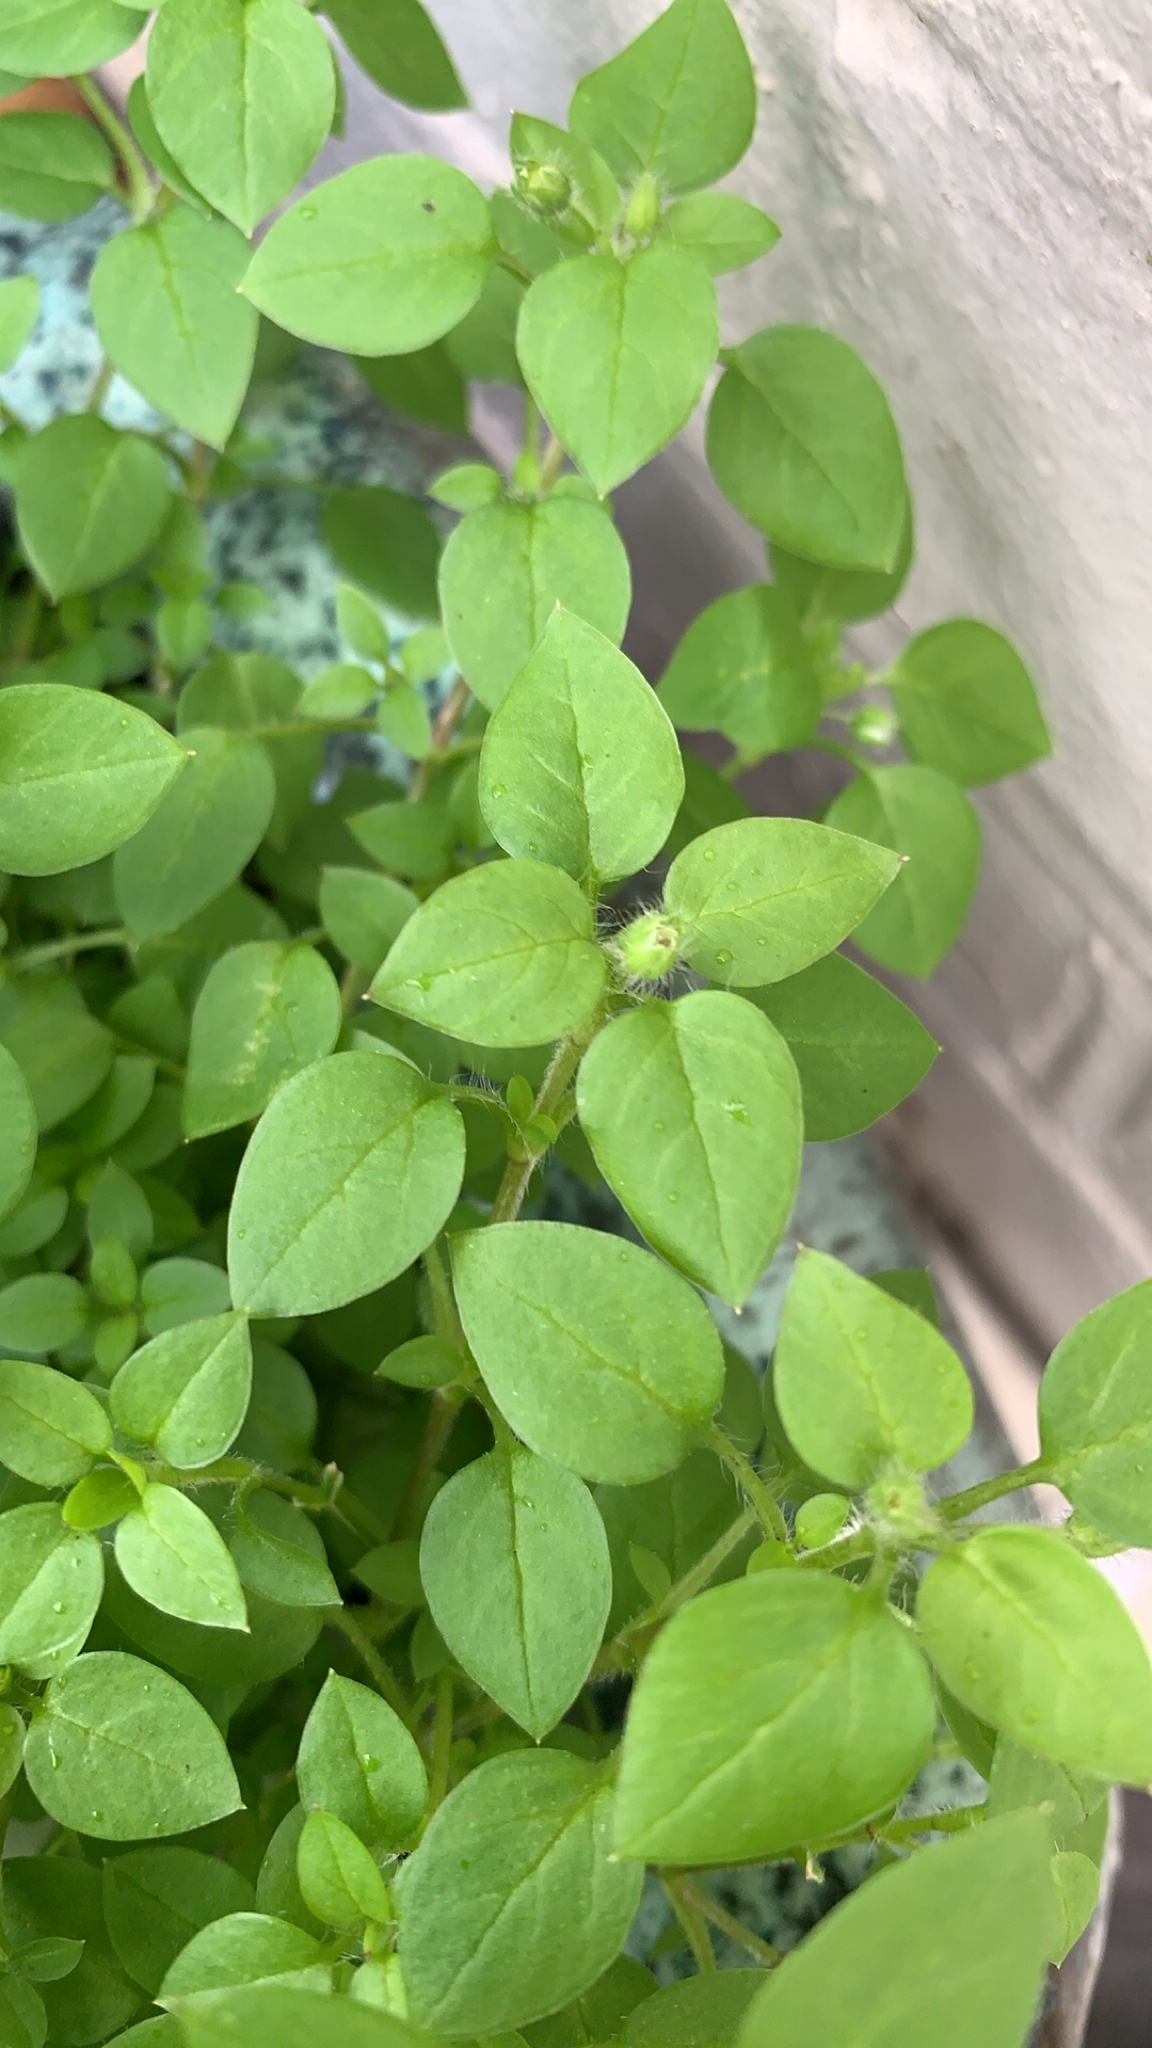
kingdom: Plantae
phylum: Tracheophyta
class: Magnoliopsida
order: Caryophyllales
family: Caryophyllaceae
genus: Stellaria
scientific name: Stellaria media
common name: Common chickweed
